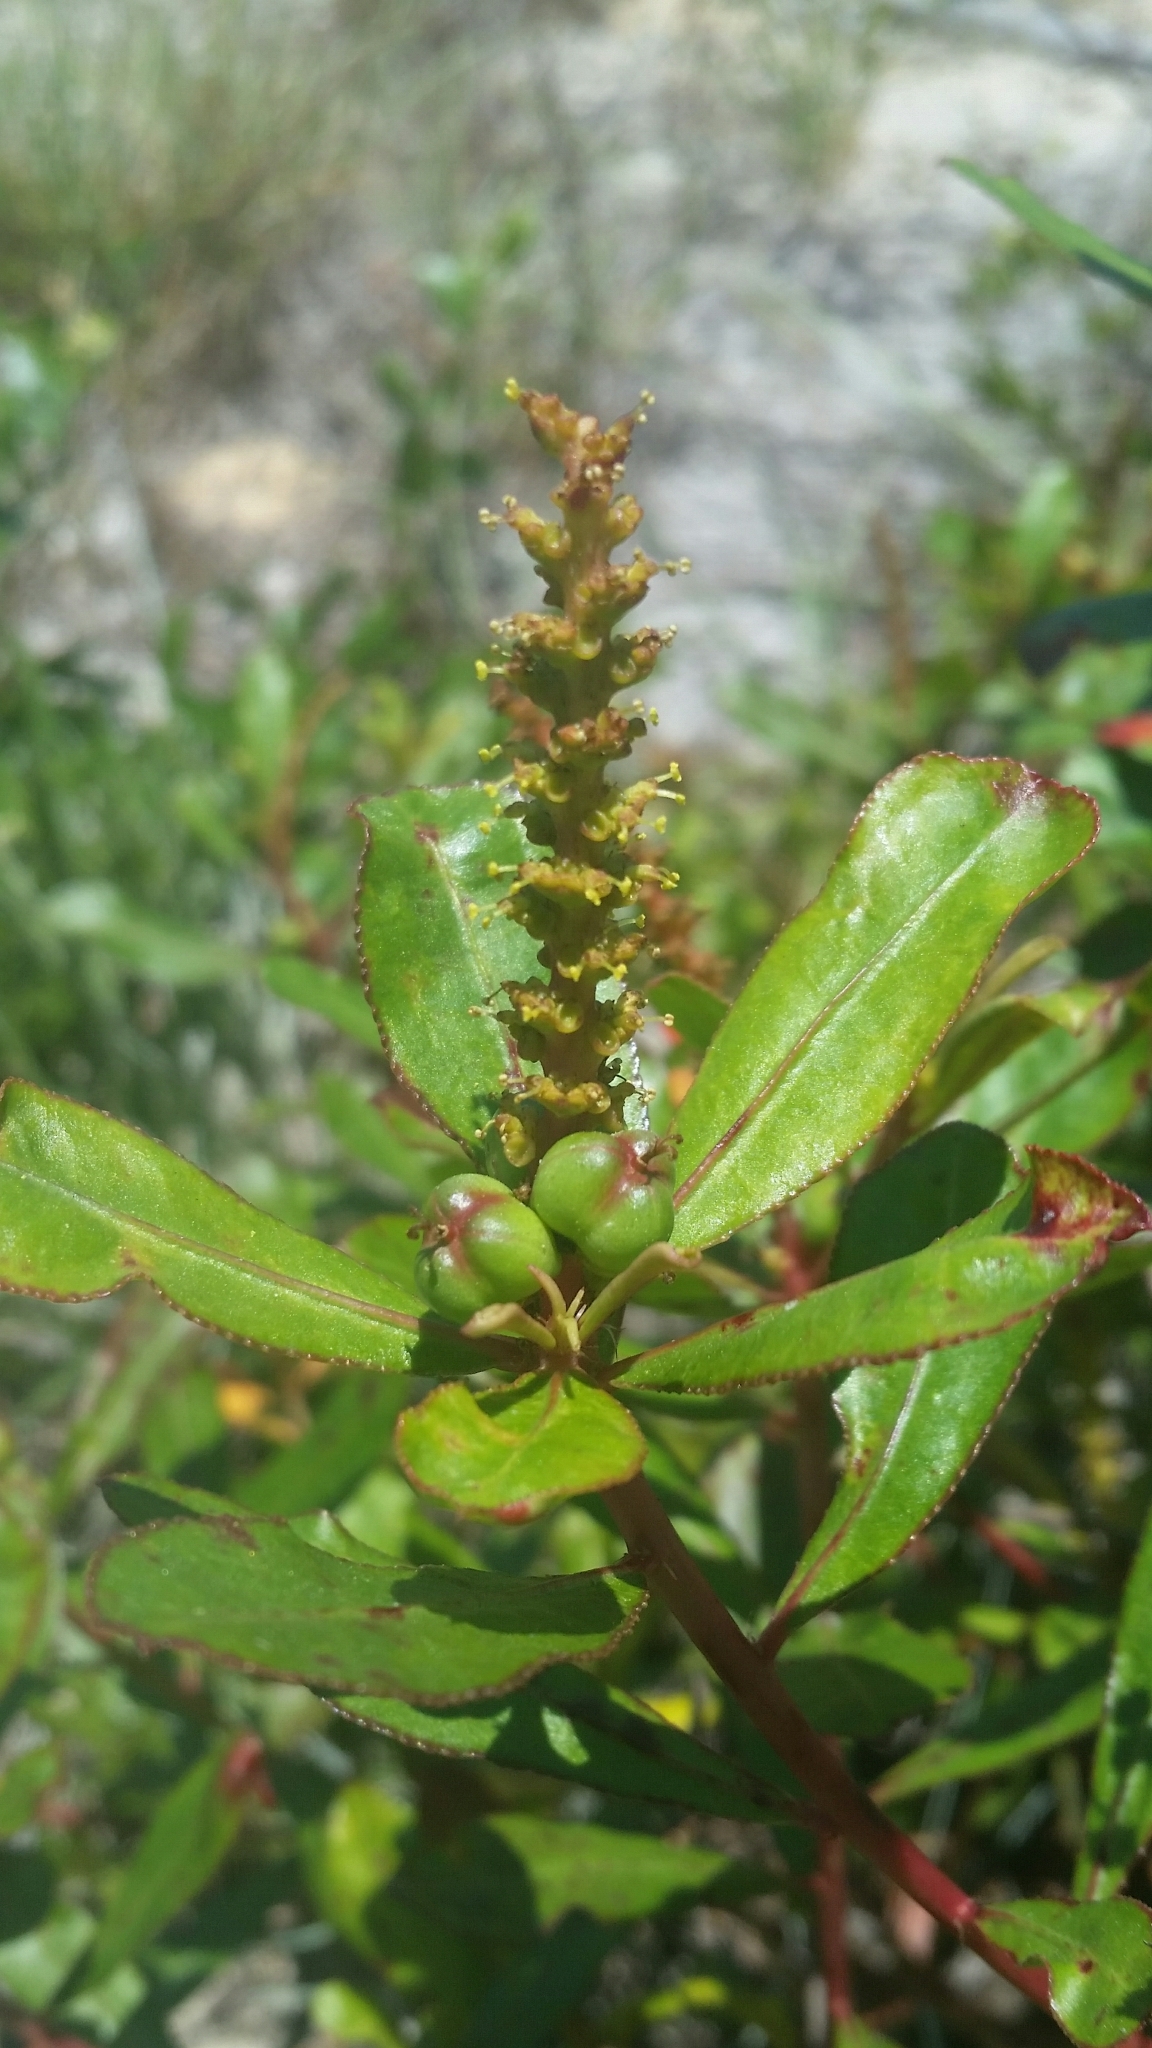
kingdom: Plantae
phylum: Tracheophyta
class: Magnoliopsida
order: Malpighiales
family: Euphorbiaceae
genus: Stillingia
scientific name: Stillingia sylvatica
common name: Queen's-delight
